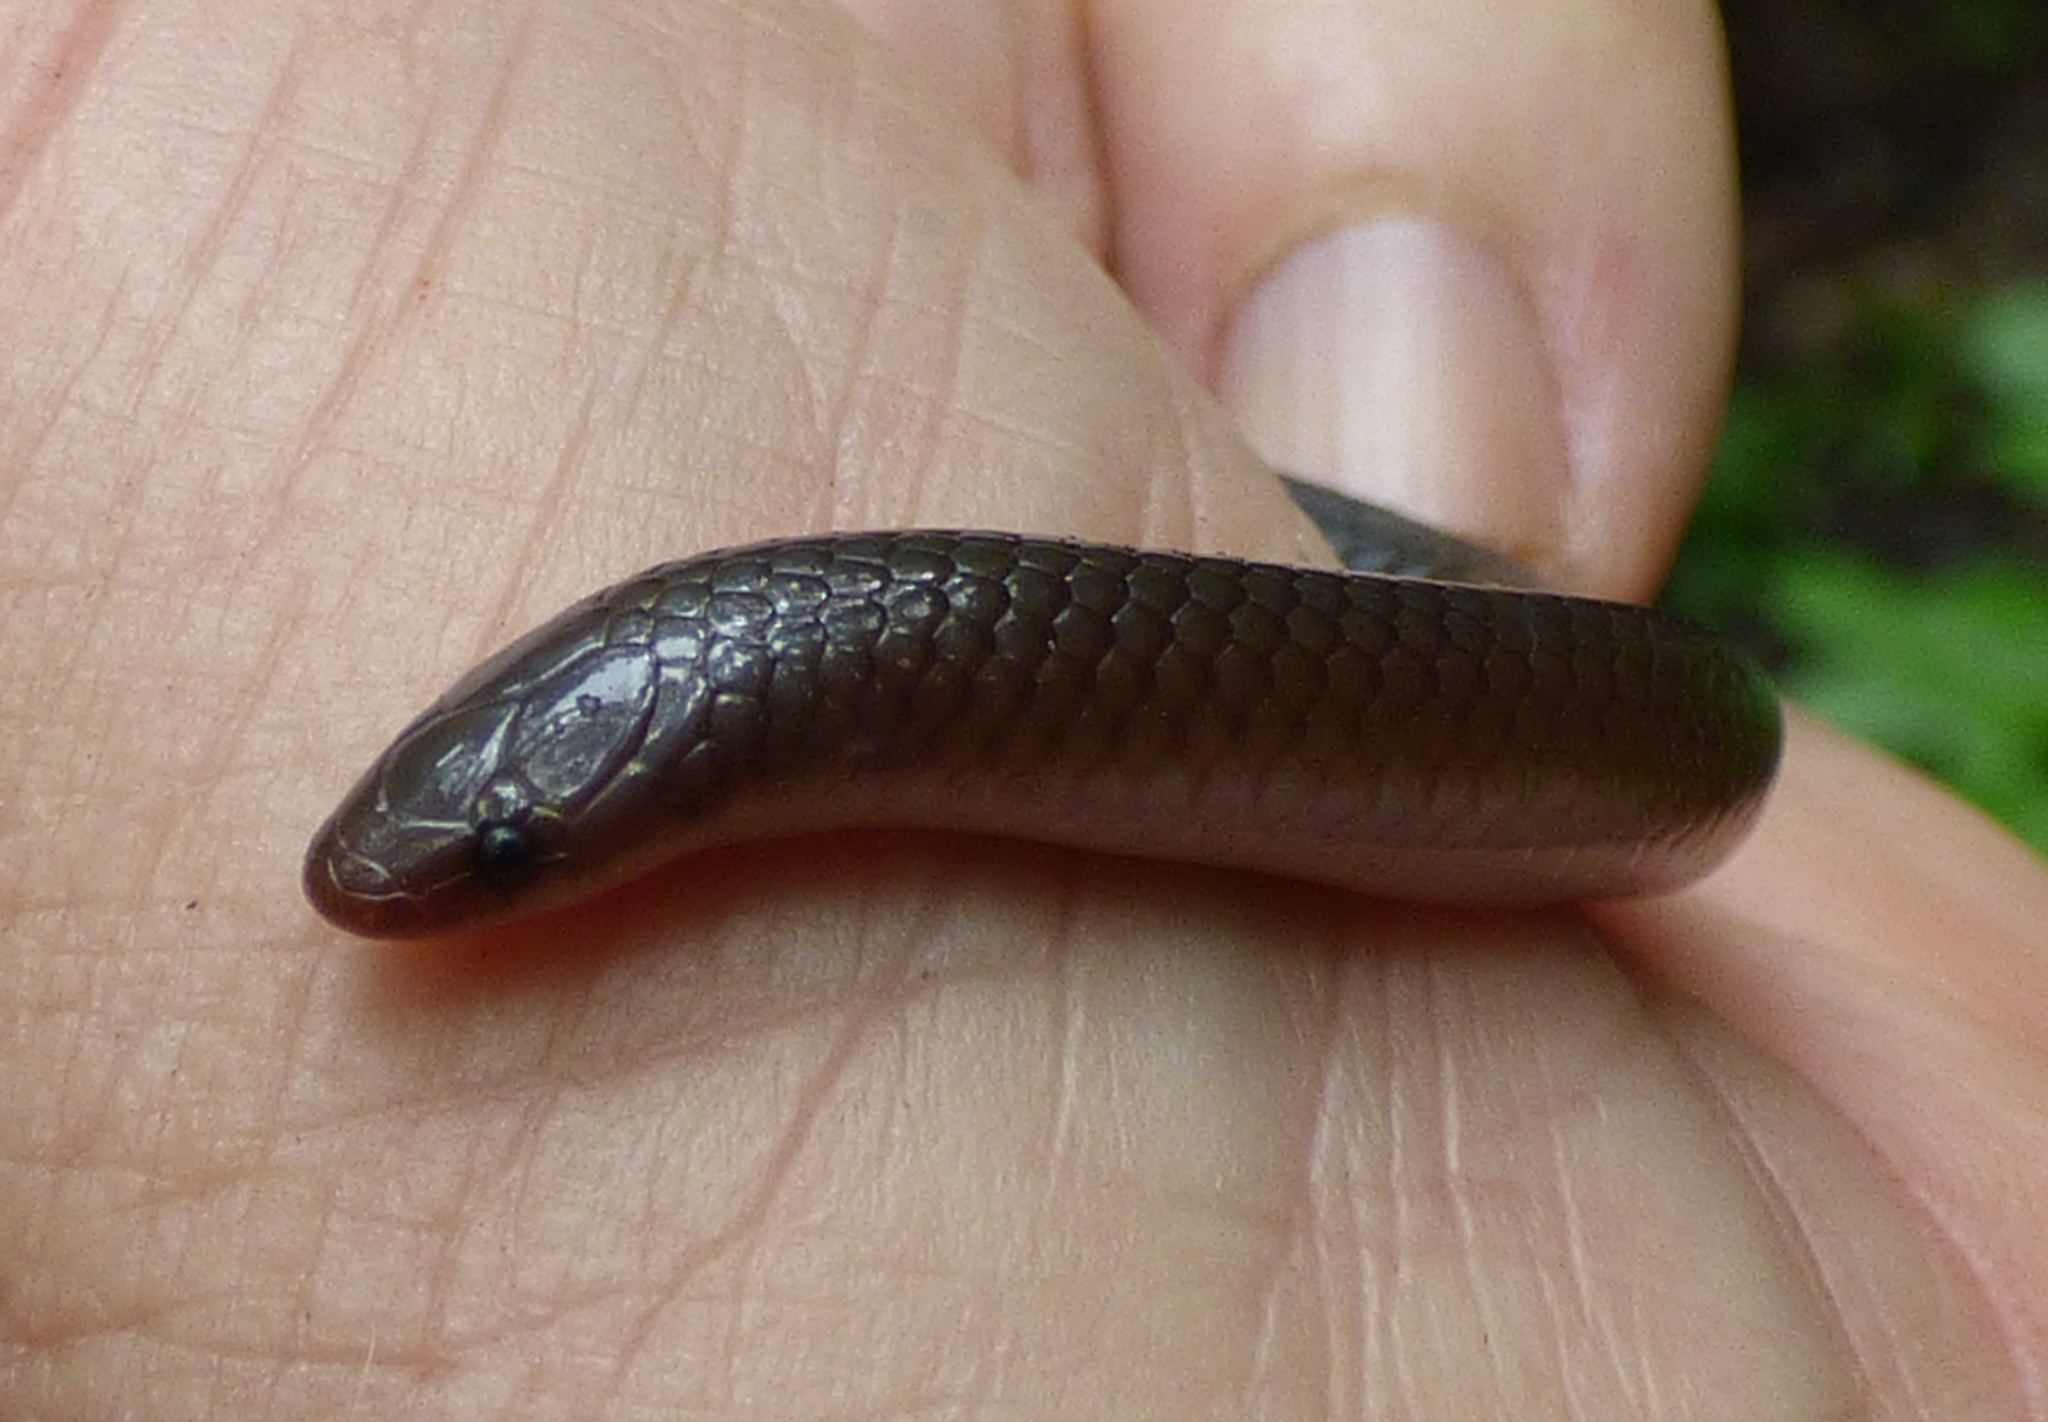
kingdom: Animalia
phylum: Chordata
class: Squamata
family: Colubridae
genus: Carphophis
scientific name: Carphophis amoenus
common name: Eastern worm snake
